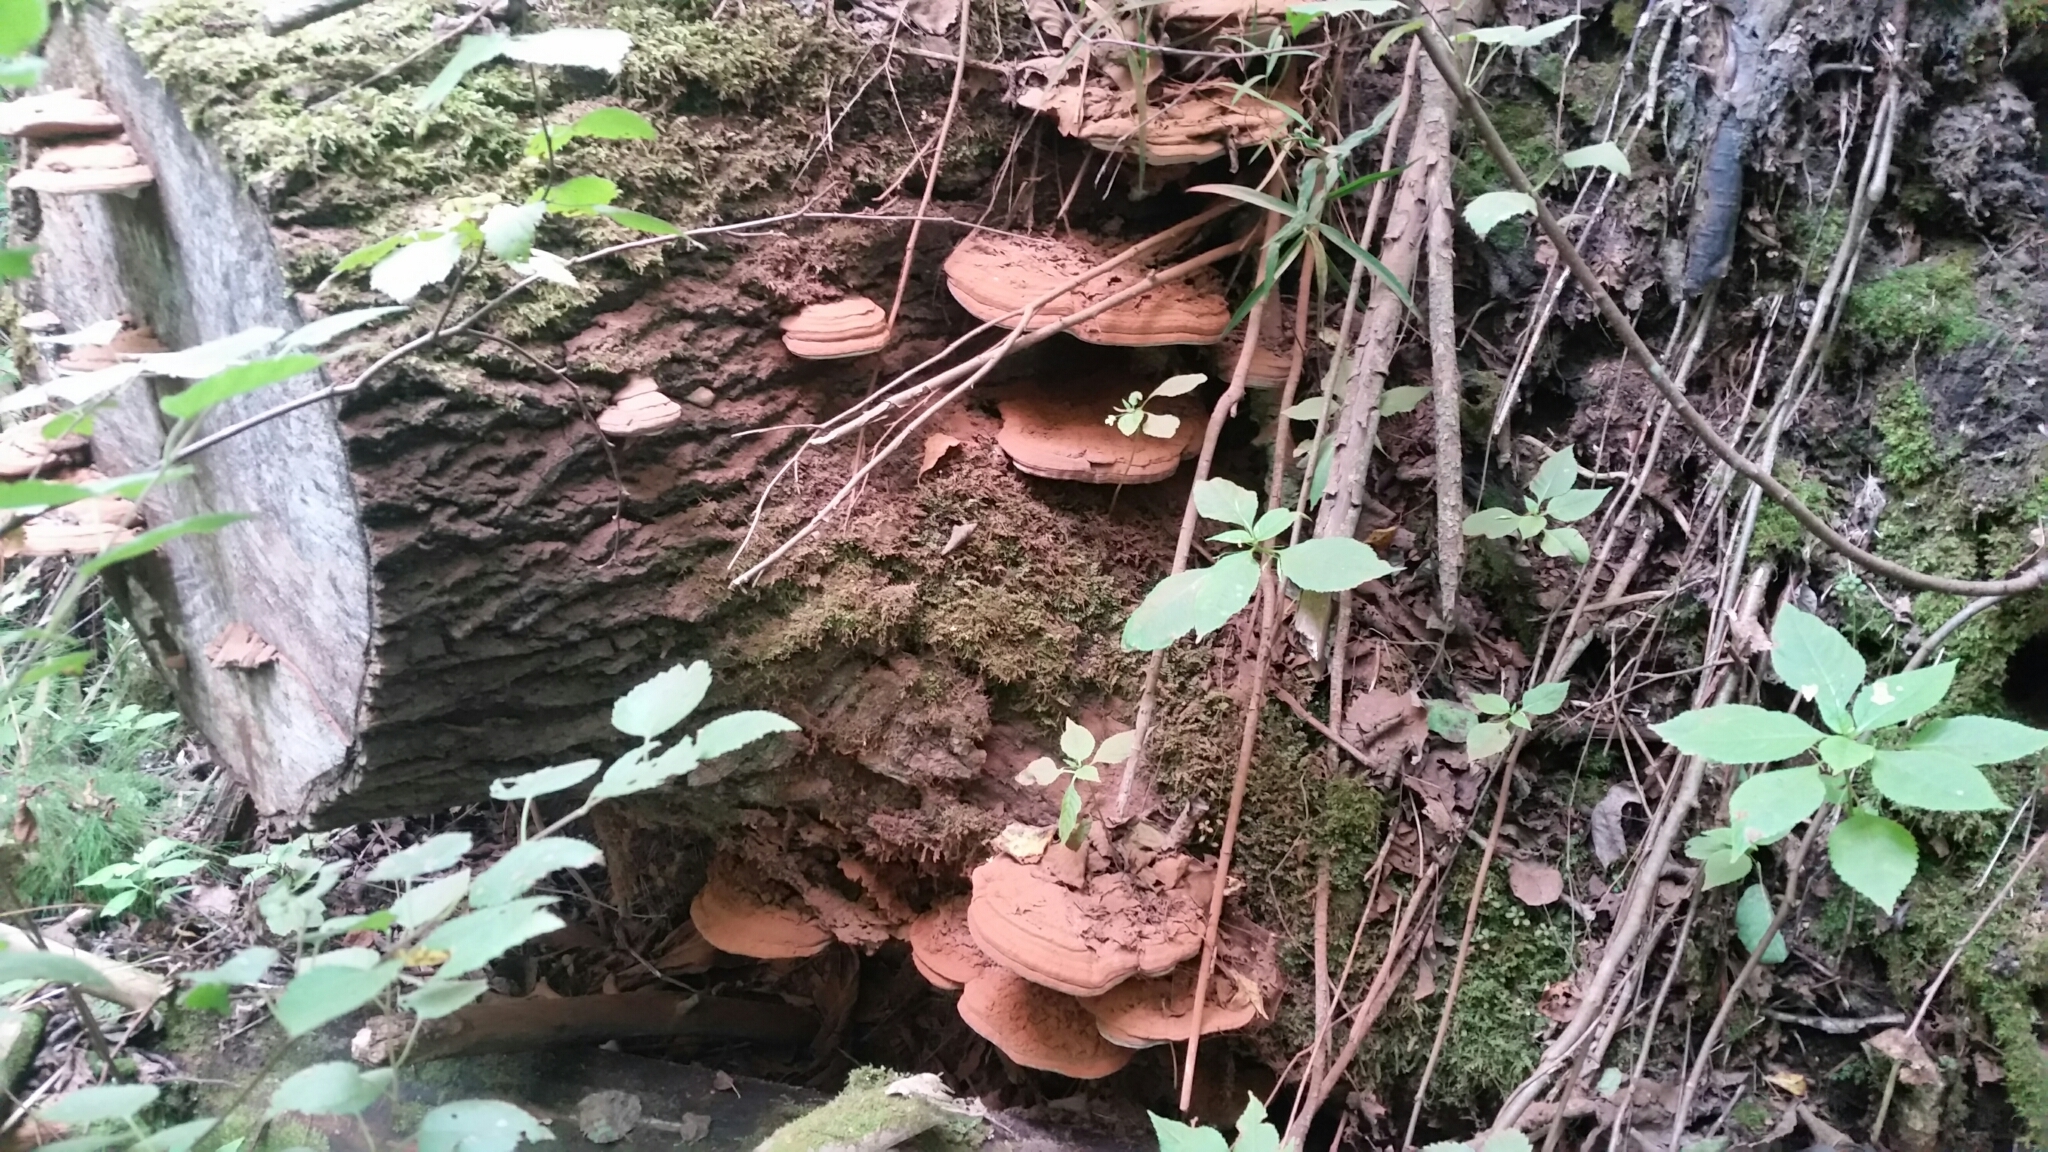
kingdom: Fungi
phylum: Basidiomycota
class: Agaricomycetes
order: Polyporales
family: Polyporaceae
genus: Ganoderma
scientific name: Ganoderma applanatum
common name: Artist's bracket
